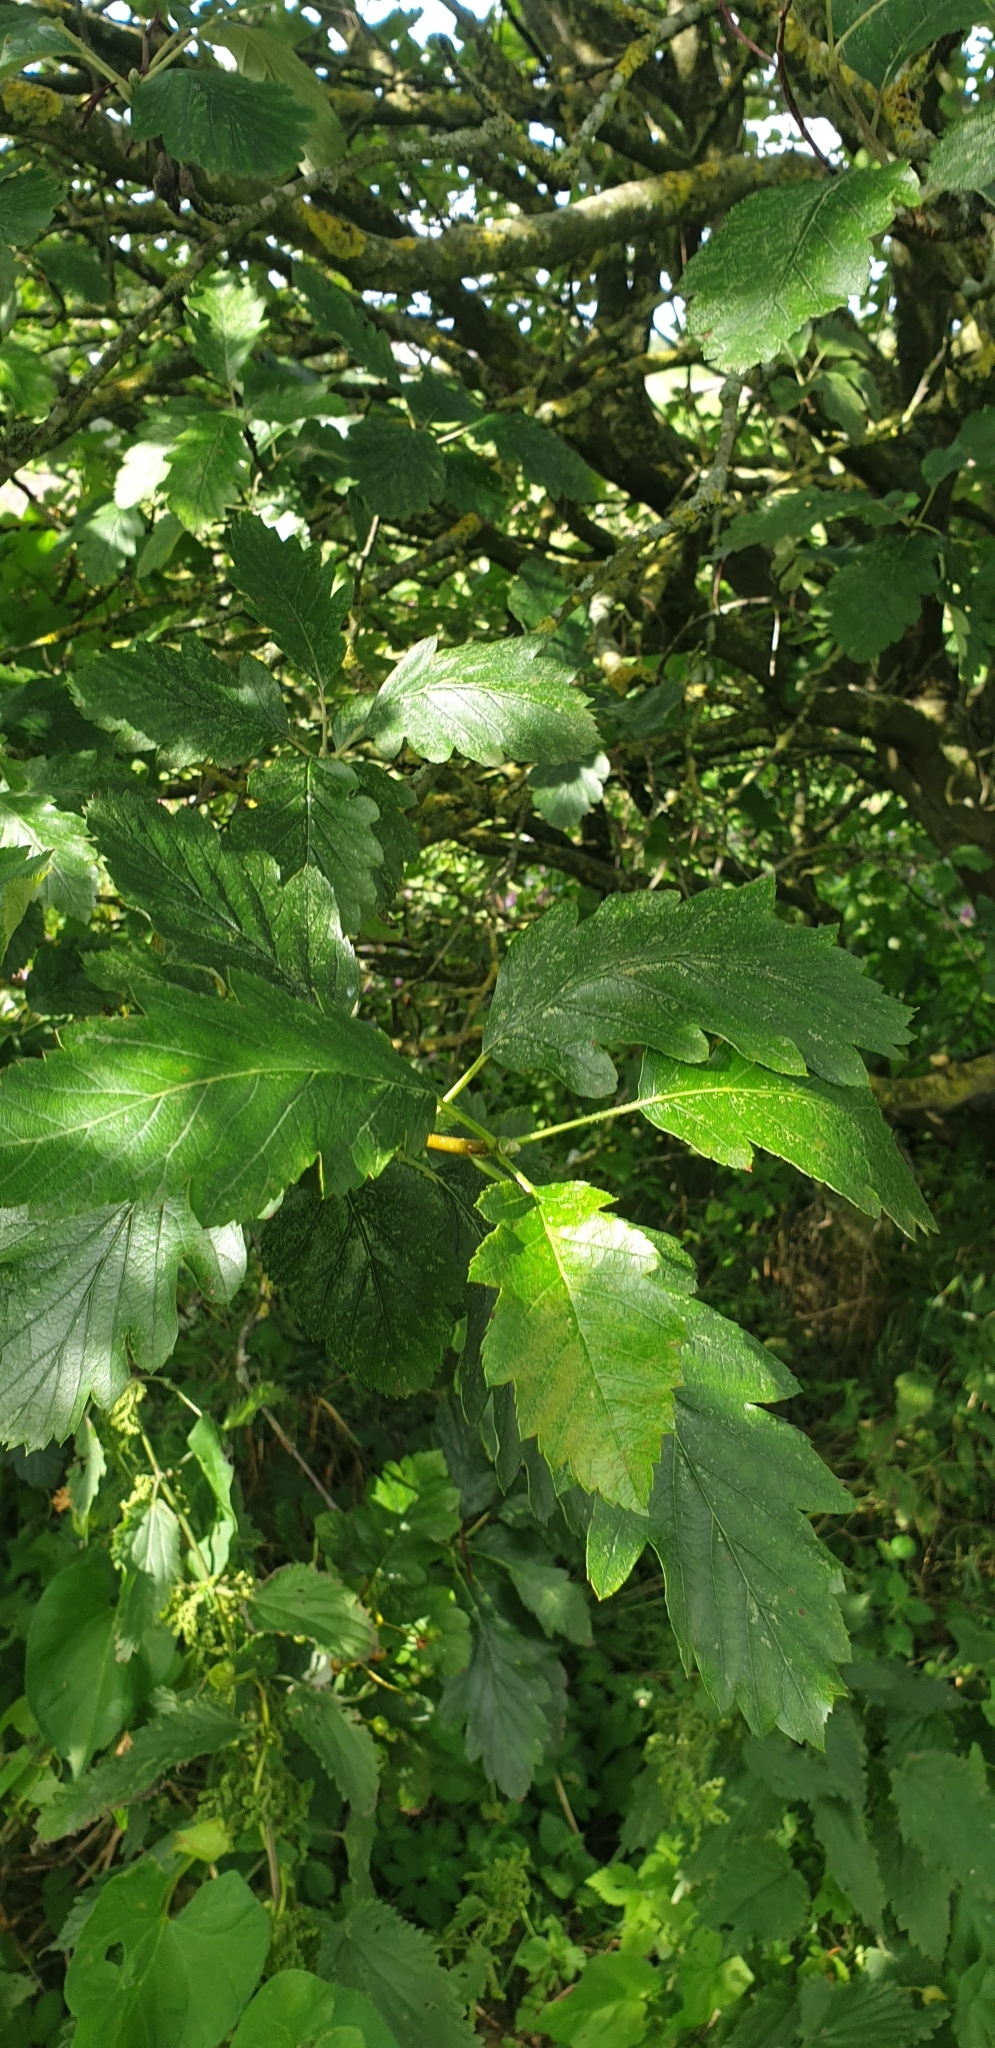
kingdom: Plantae
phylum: Tracheophyta
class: Magnoliopsida
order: Rosales
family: Rosaceae
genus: Scandosorbus
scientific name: Scandosorbus intermedia
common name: Swedish whitebeam
